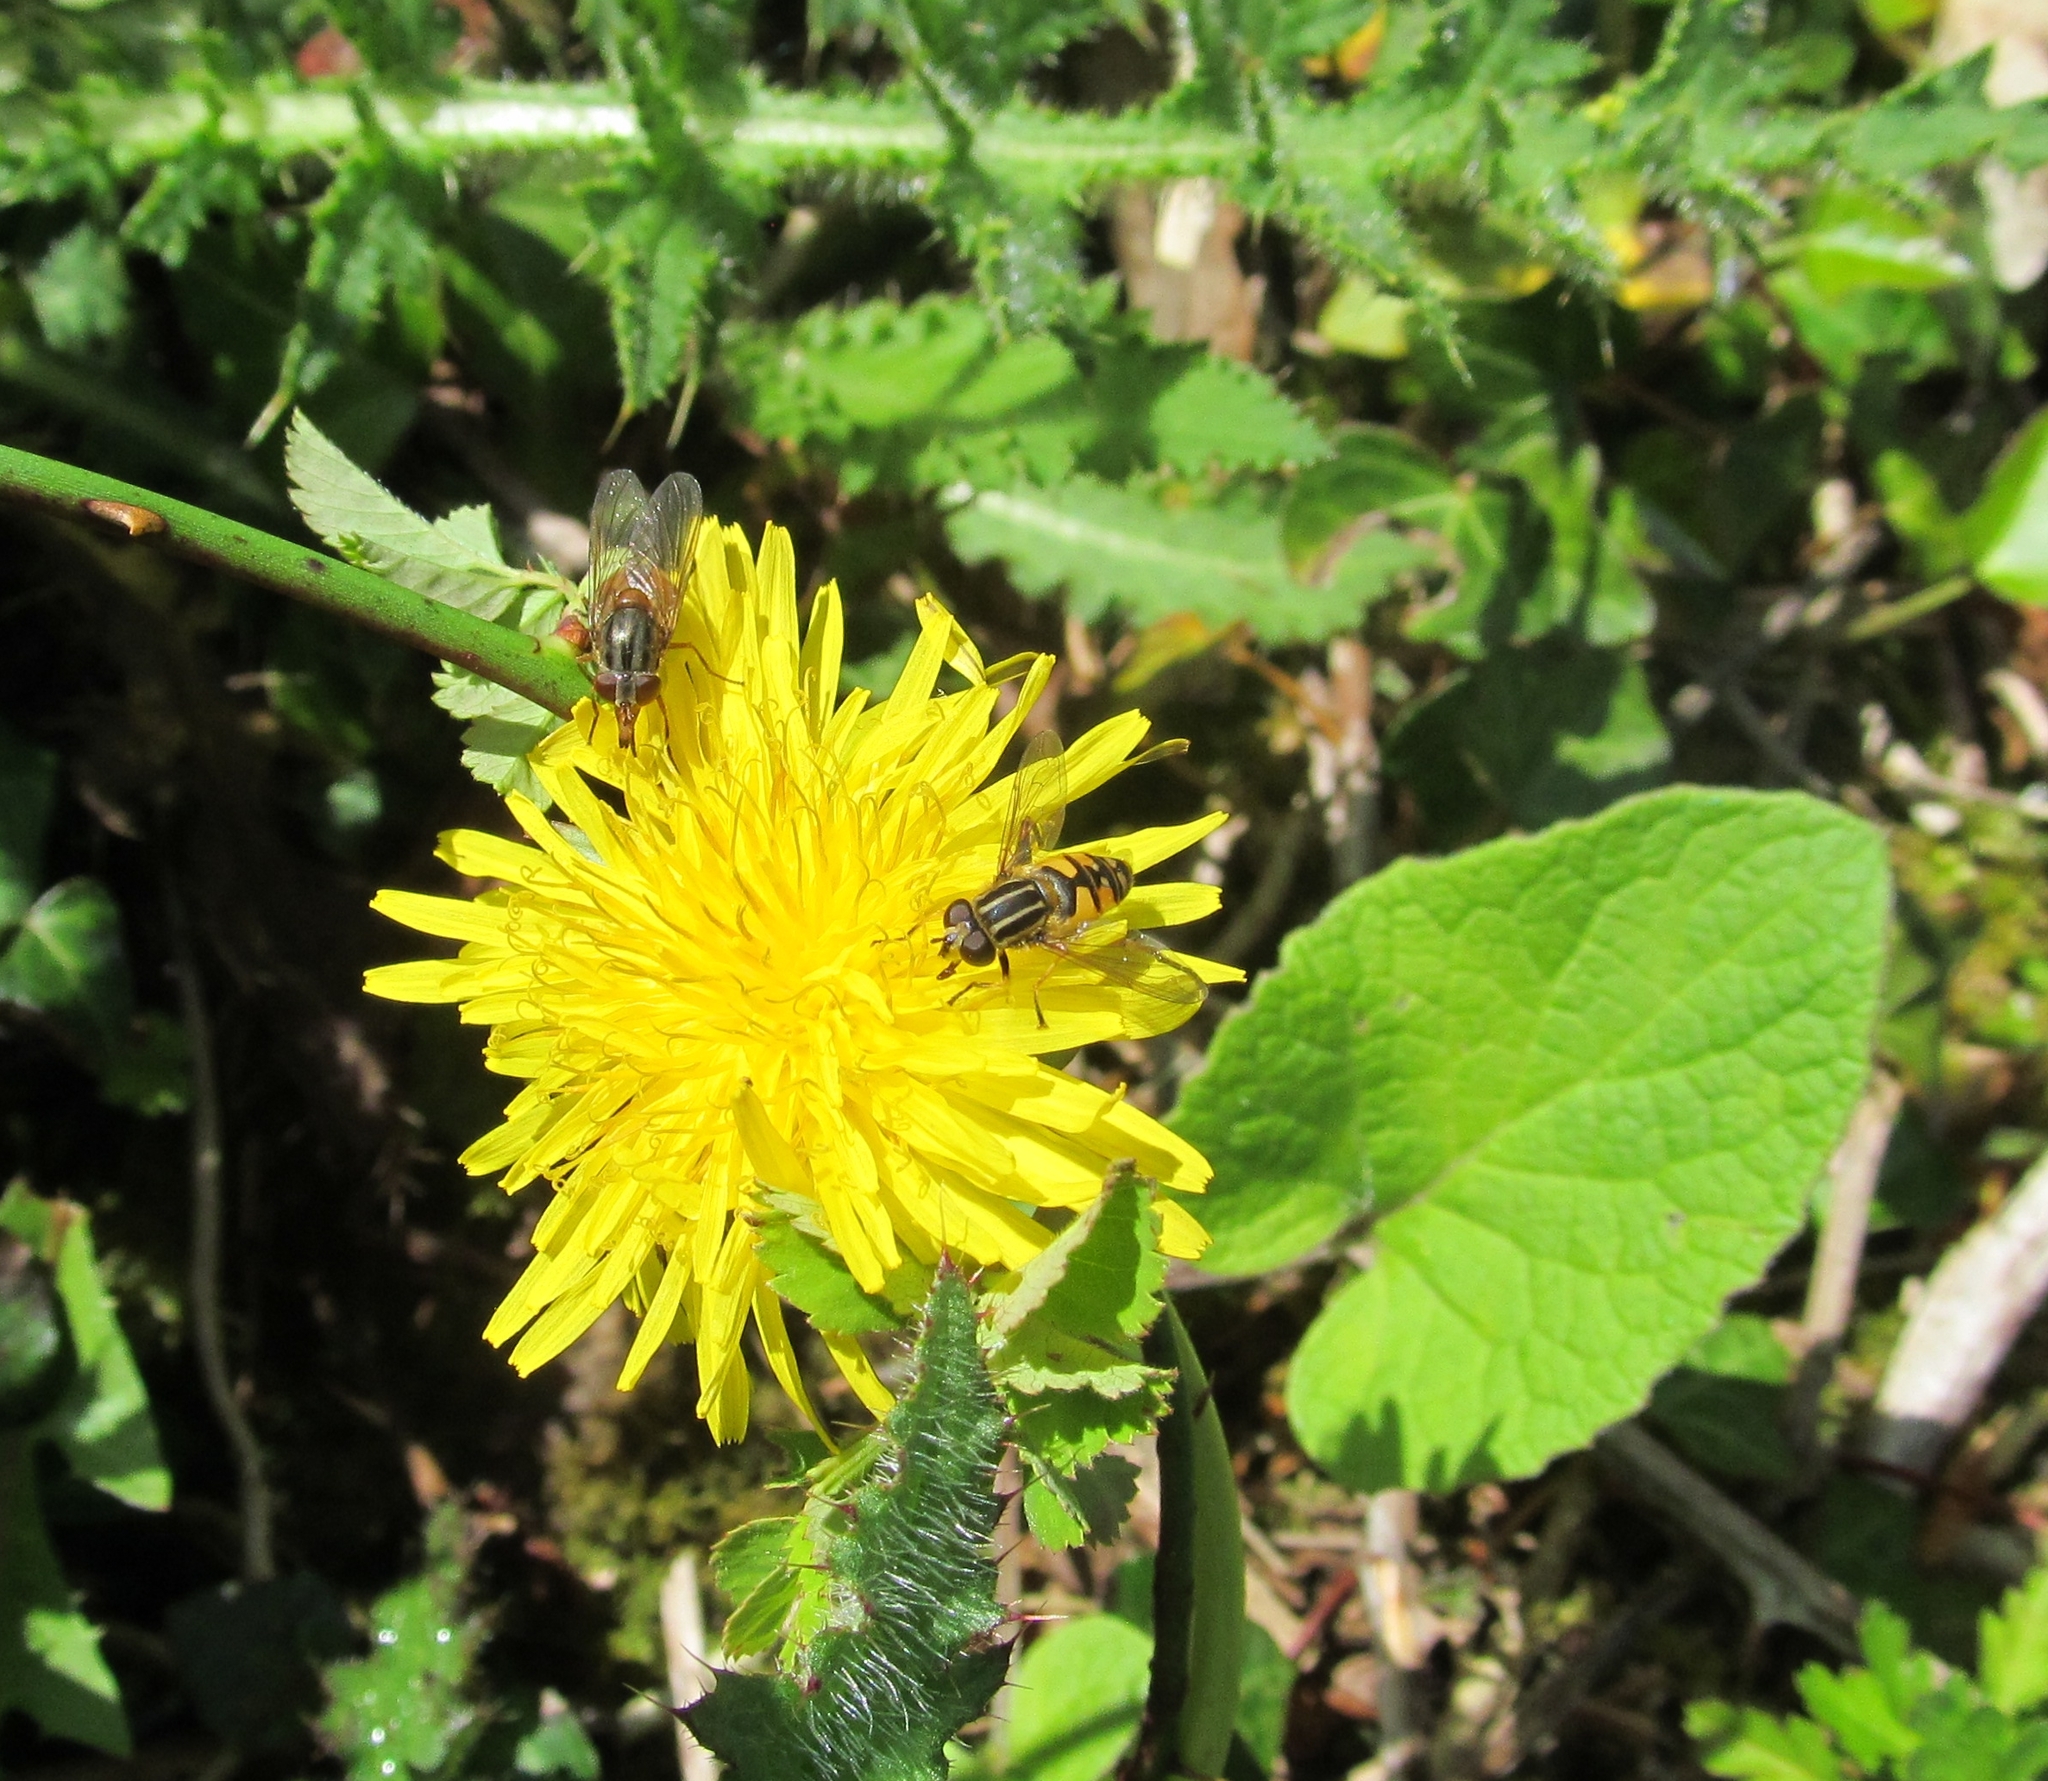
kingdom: Animalia
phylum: Arthropoda
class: Insecta
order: Diptera
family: Syrphidae
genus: Rhingia
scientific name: Rhingia campestris
